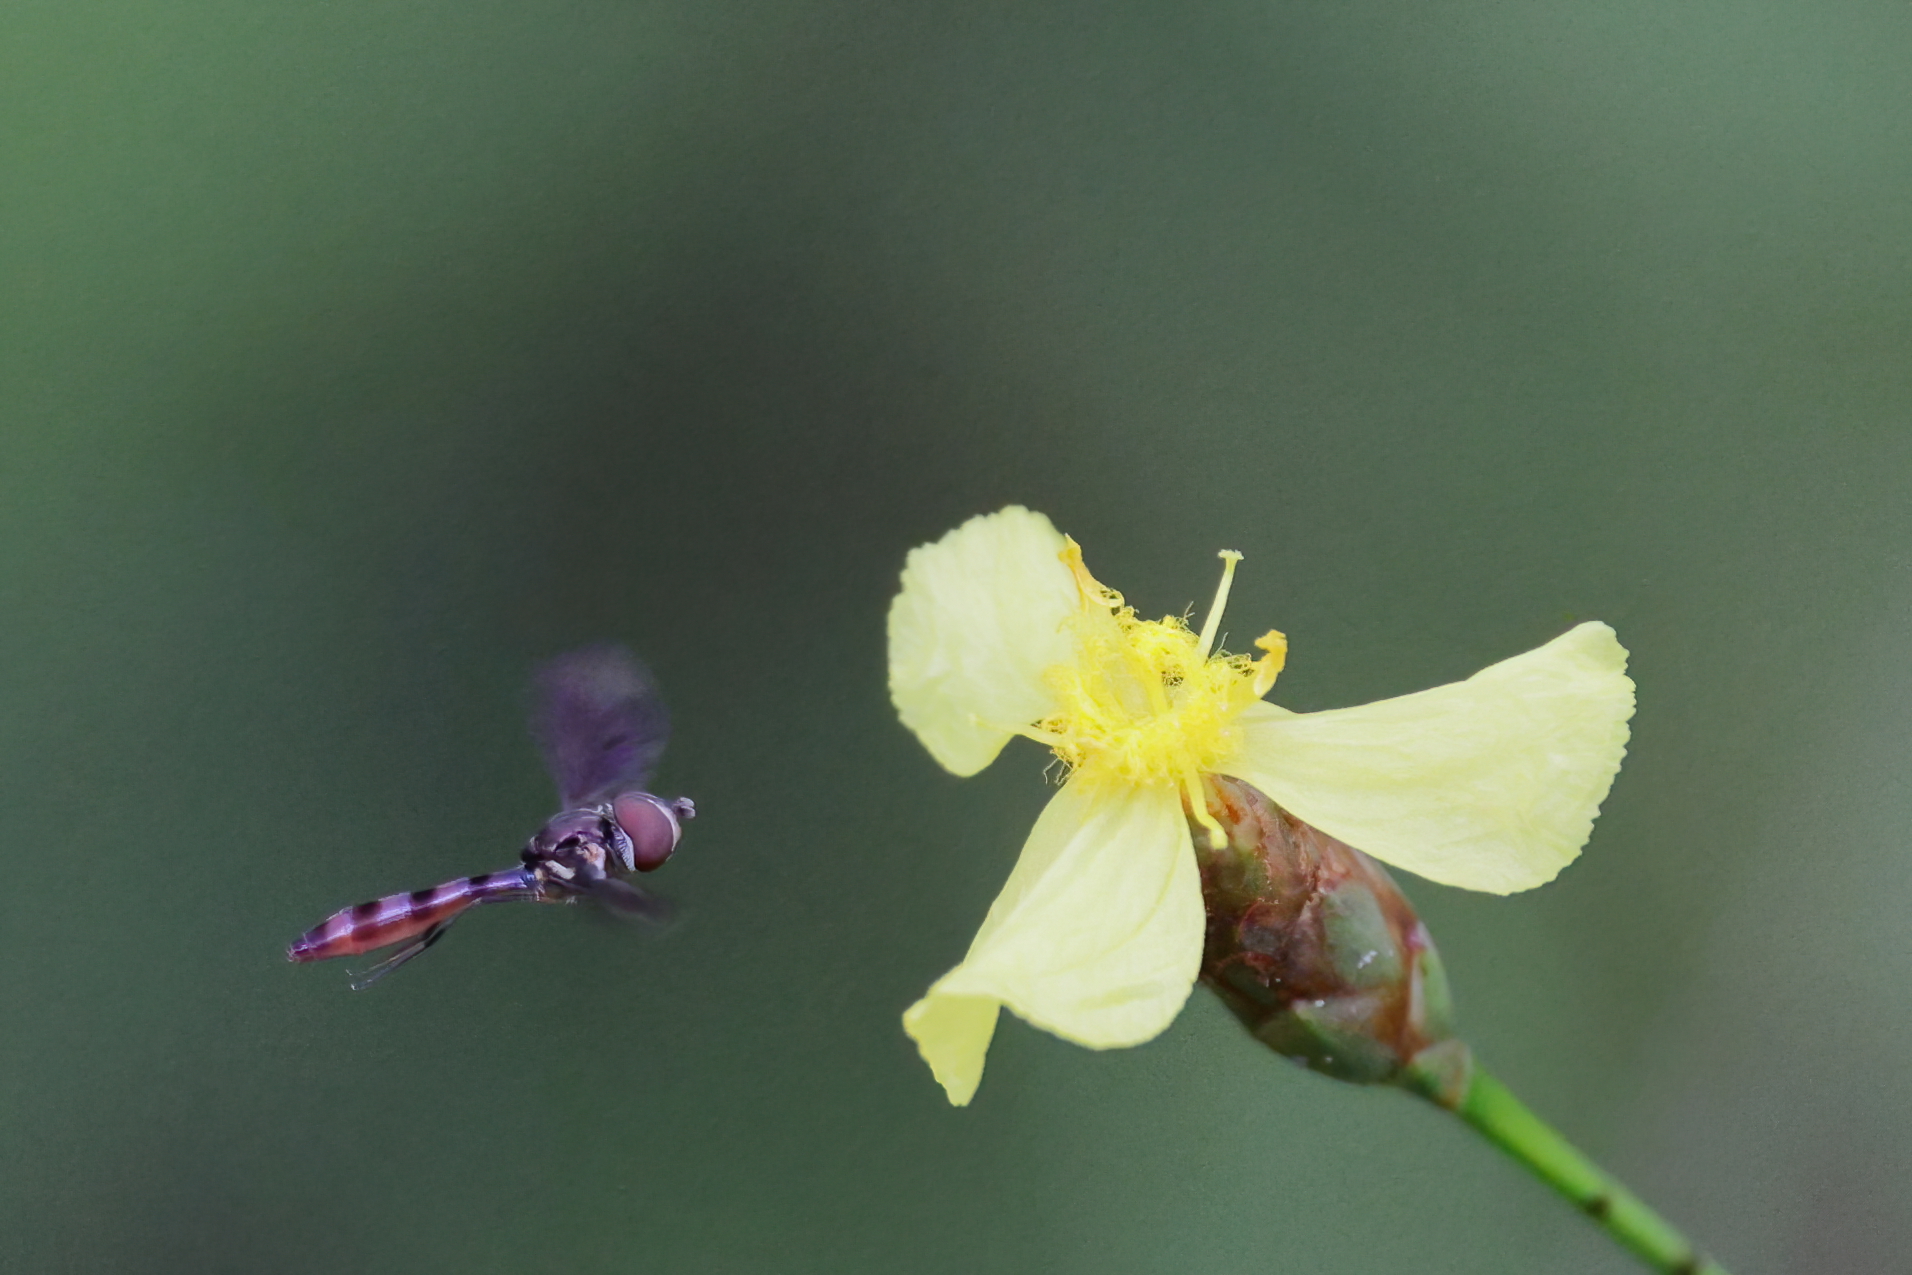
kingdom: Animalia
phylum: Arthropoda
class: Insecta
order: Diptera
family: Syrphidae
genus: Ocyptamus
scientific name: Ocyptamus fuscipennis
